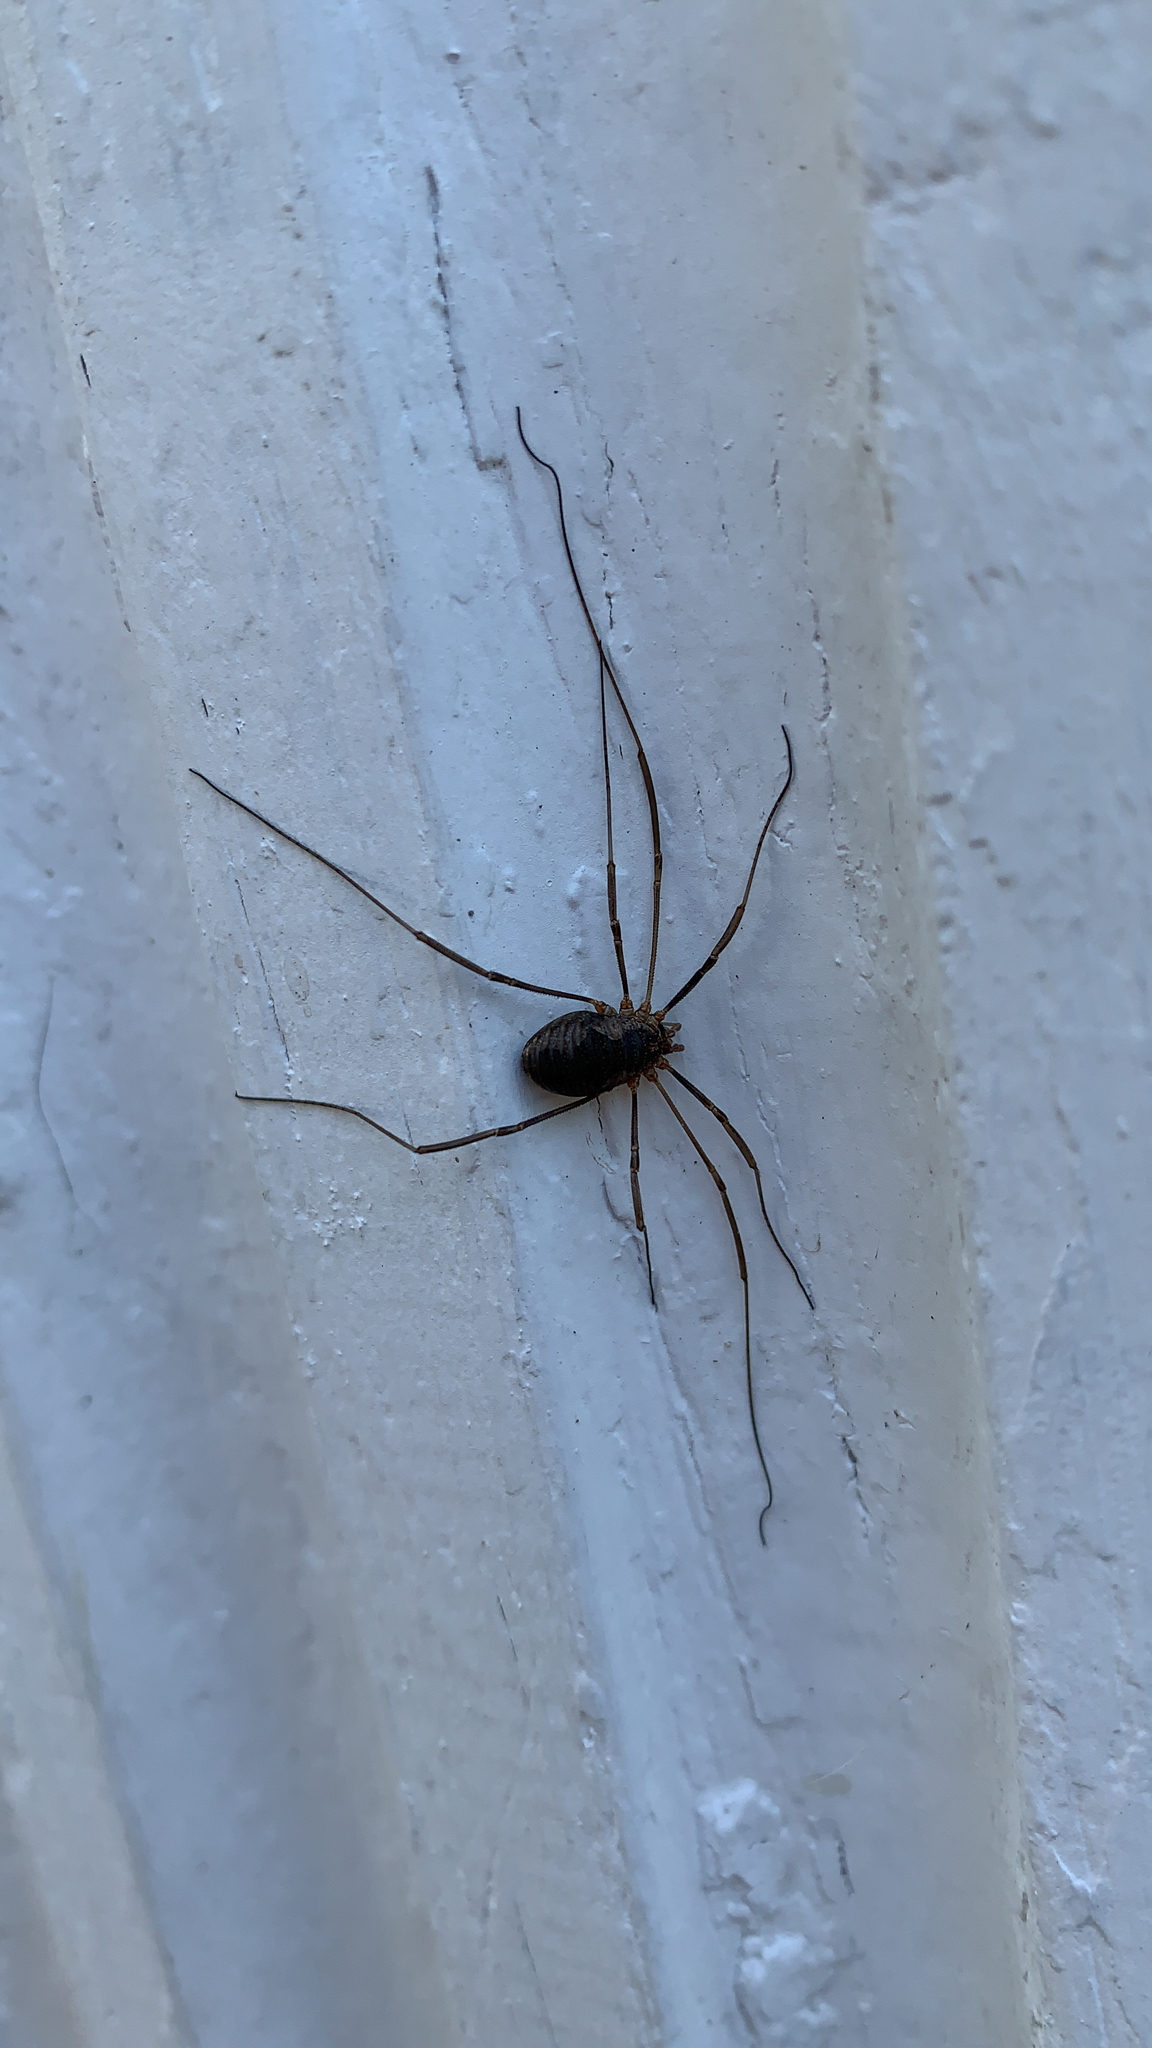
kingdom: Animalia
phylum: Arthropoda
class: Arachnida
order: Opiliones
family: Phalangiidae
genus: Phalangium
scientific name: Phalangium opilio
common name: Daddy longleg
